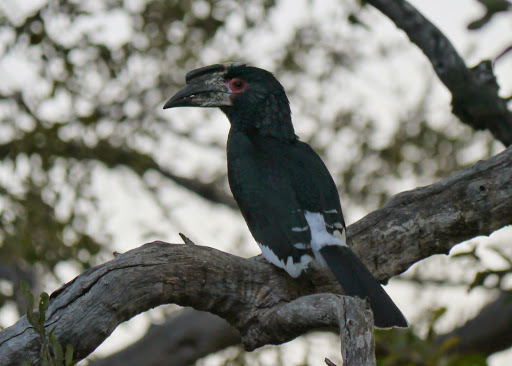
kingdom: Animalia
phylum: Chordata
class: Aves
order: Bucerotiformes
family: Bucerotidae
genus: Bycanistes
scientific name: Bycanistes bucinator
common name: Trumpeter hornbill
